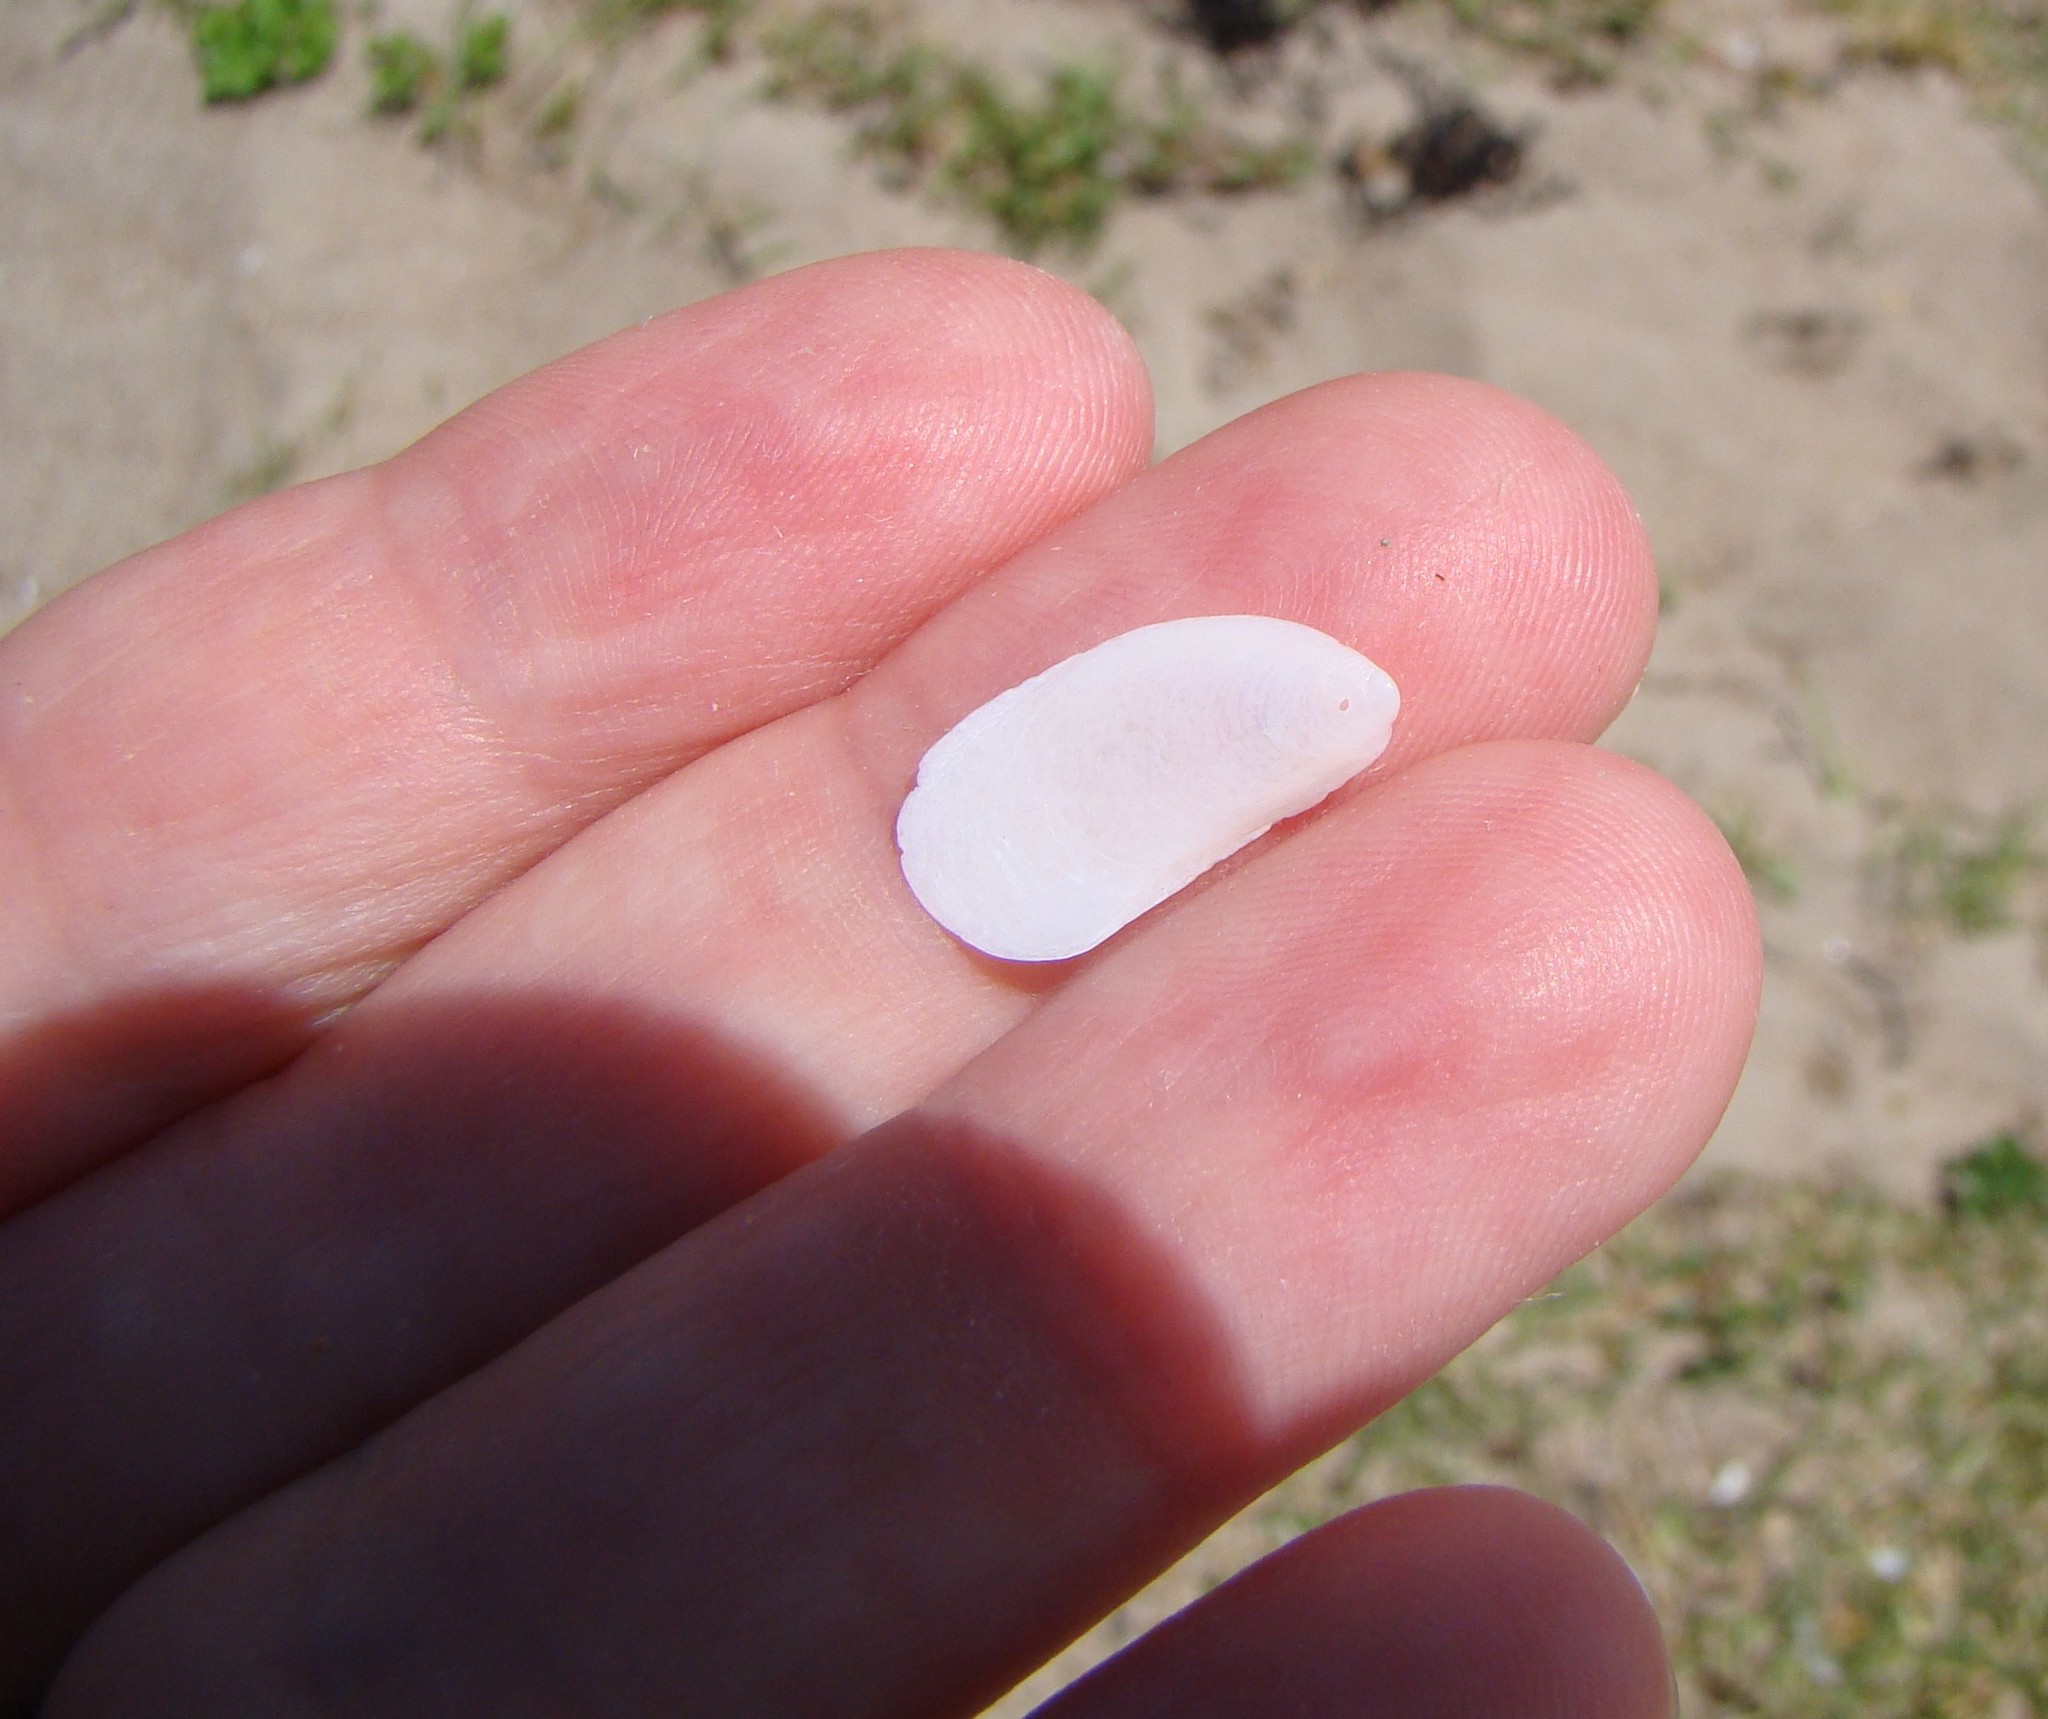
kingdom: Animalia
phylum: Mollusca
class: Gastropoda
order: Littorinimorpha
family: Calyptraeidae
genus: Maoricrypta
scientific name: Maoricrypta sodalis
